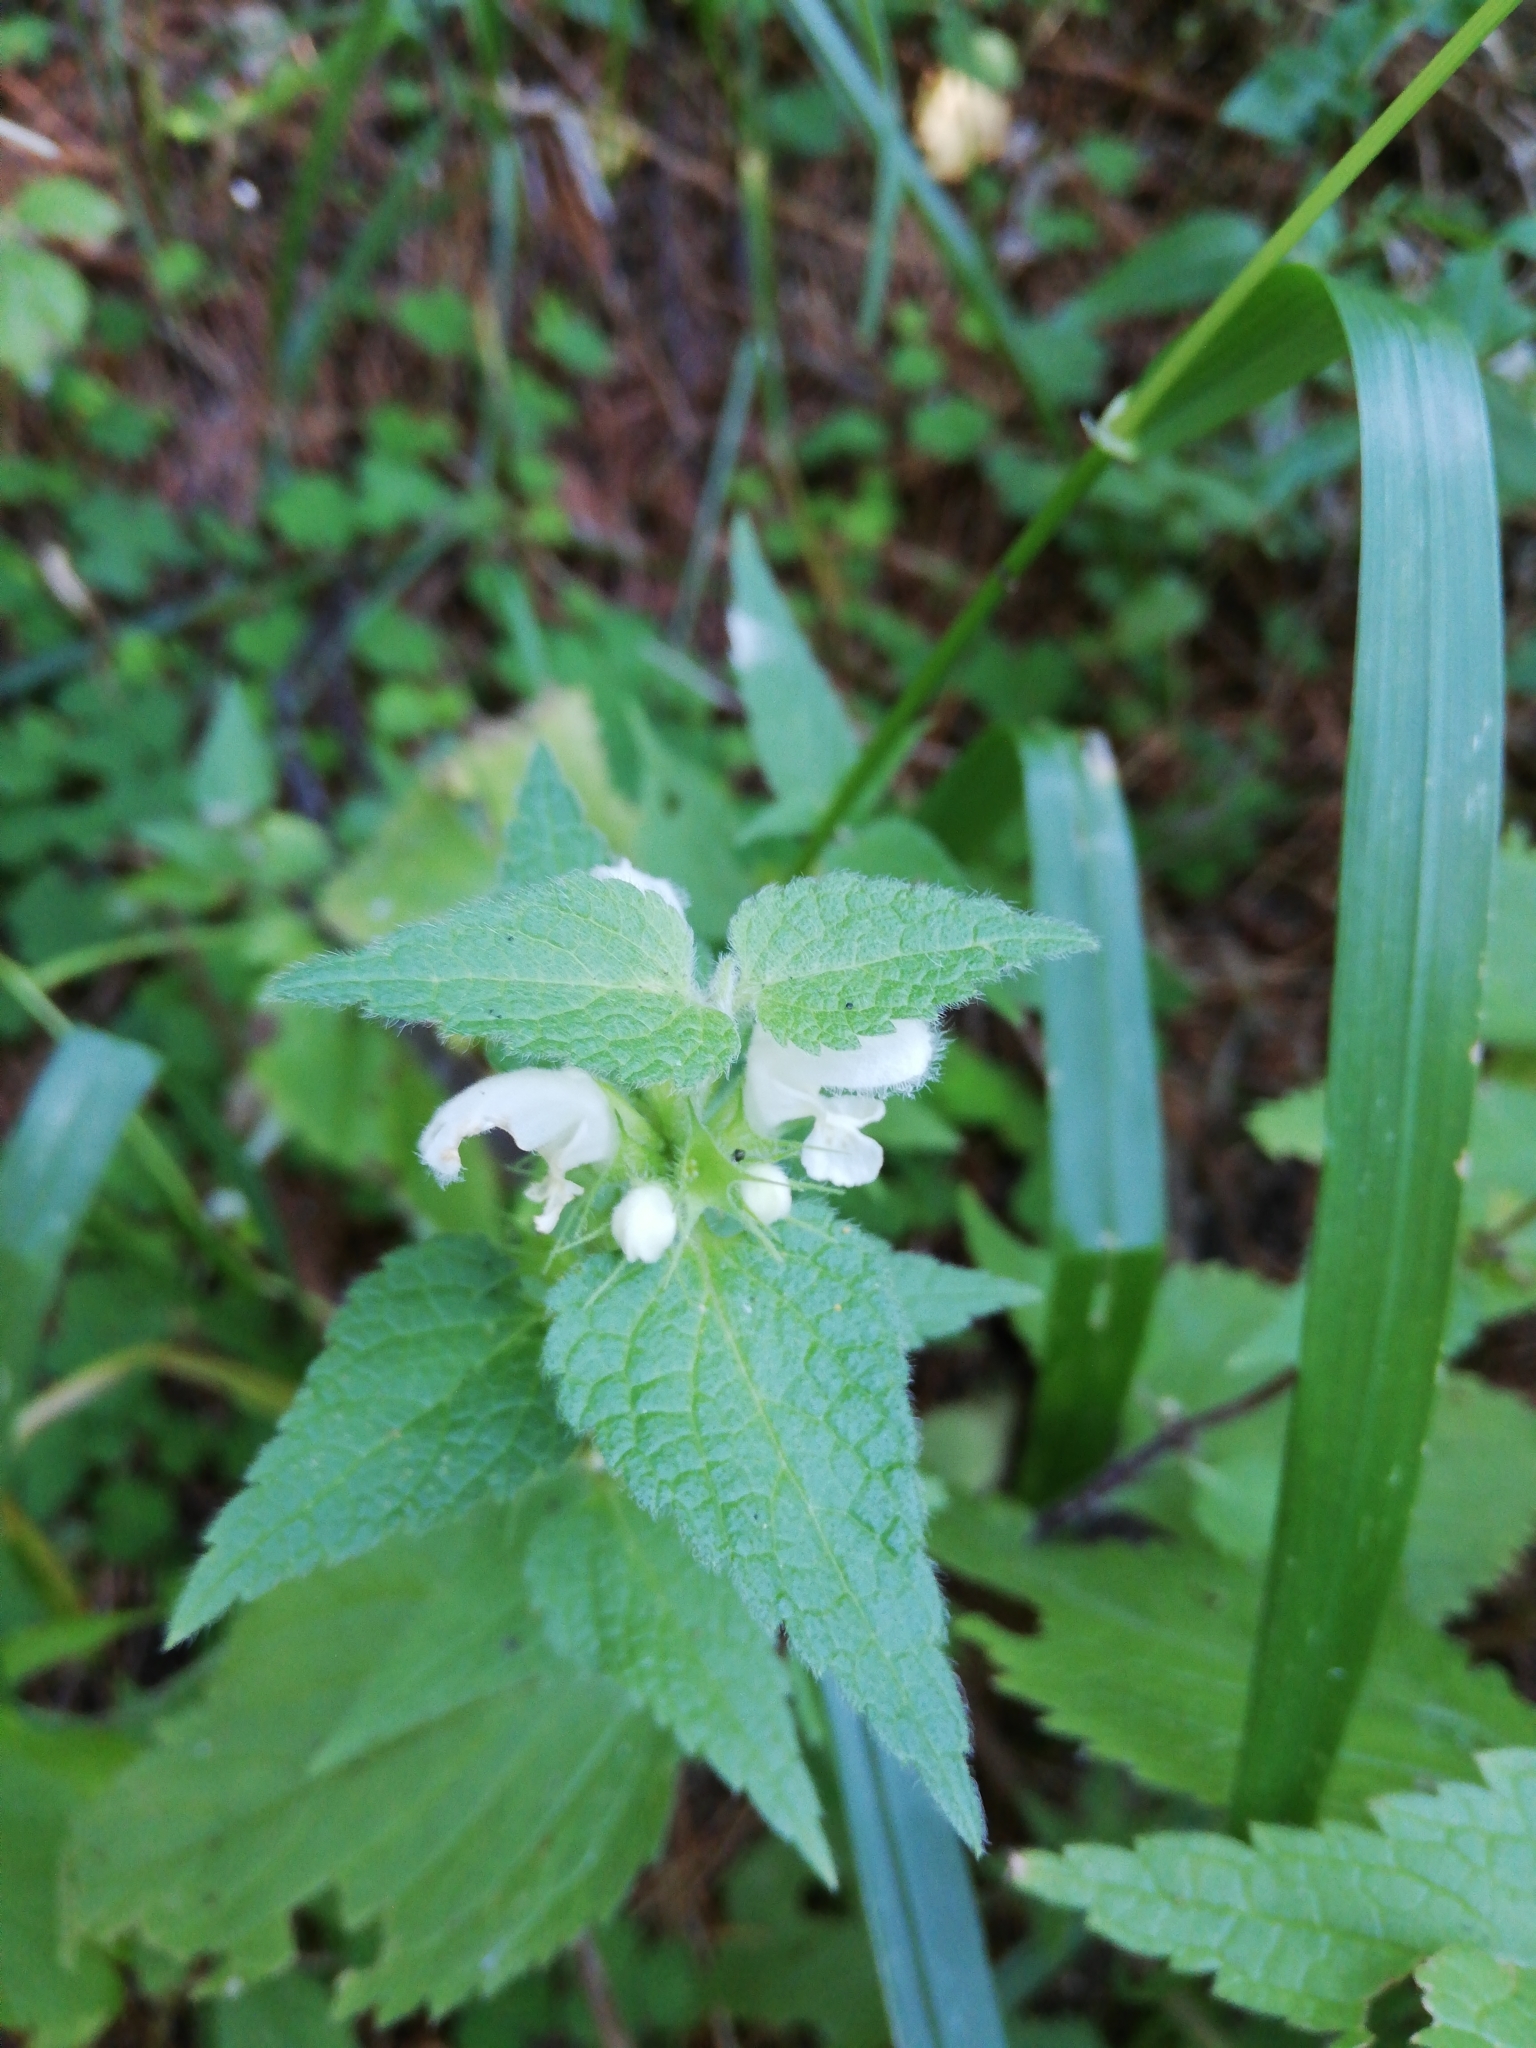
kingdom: Plantae
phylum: Tracheophyta
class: Magnoliopsida
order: Lamiales
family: Lamiaceae
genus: Lamium
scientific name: Lamium album
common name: White dead-nettle
